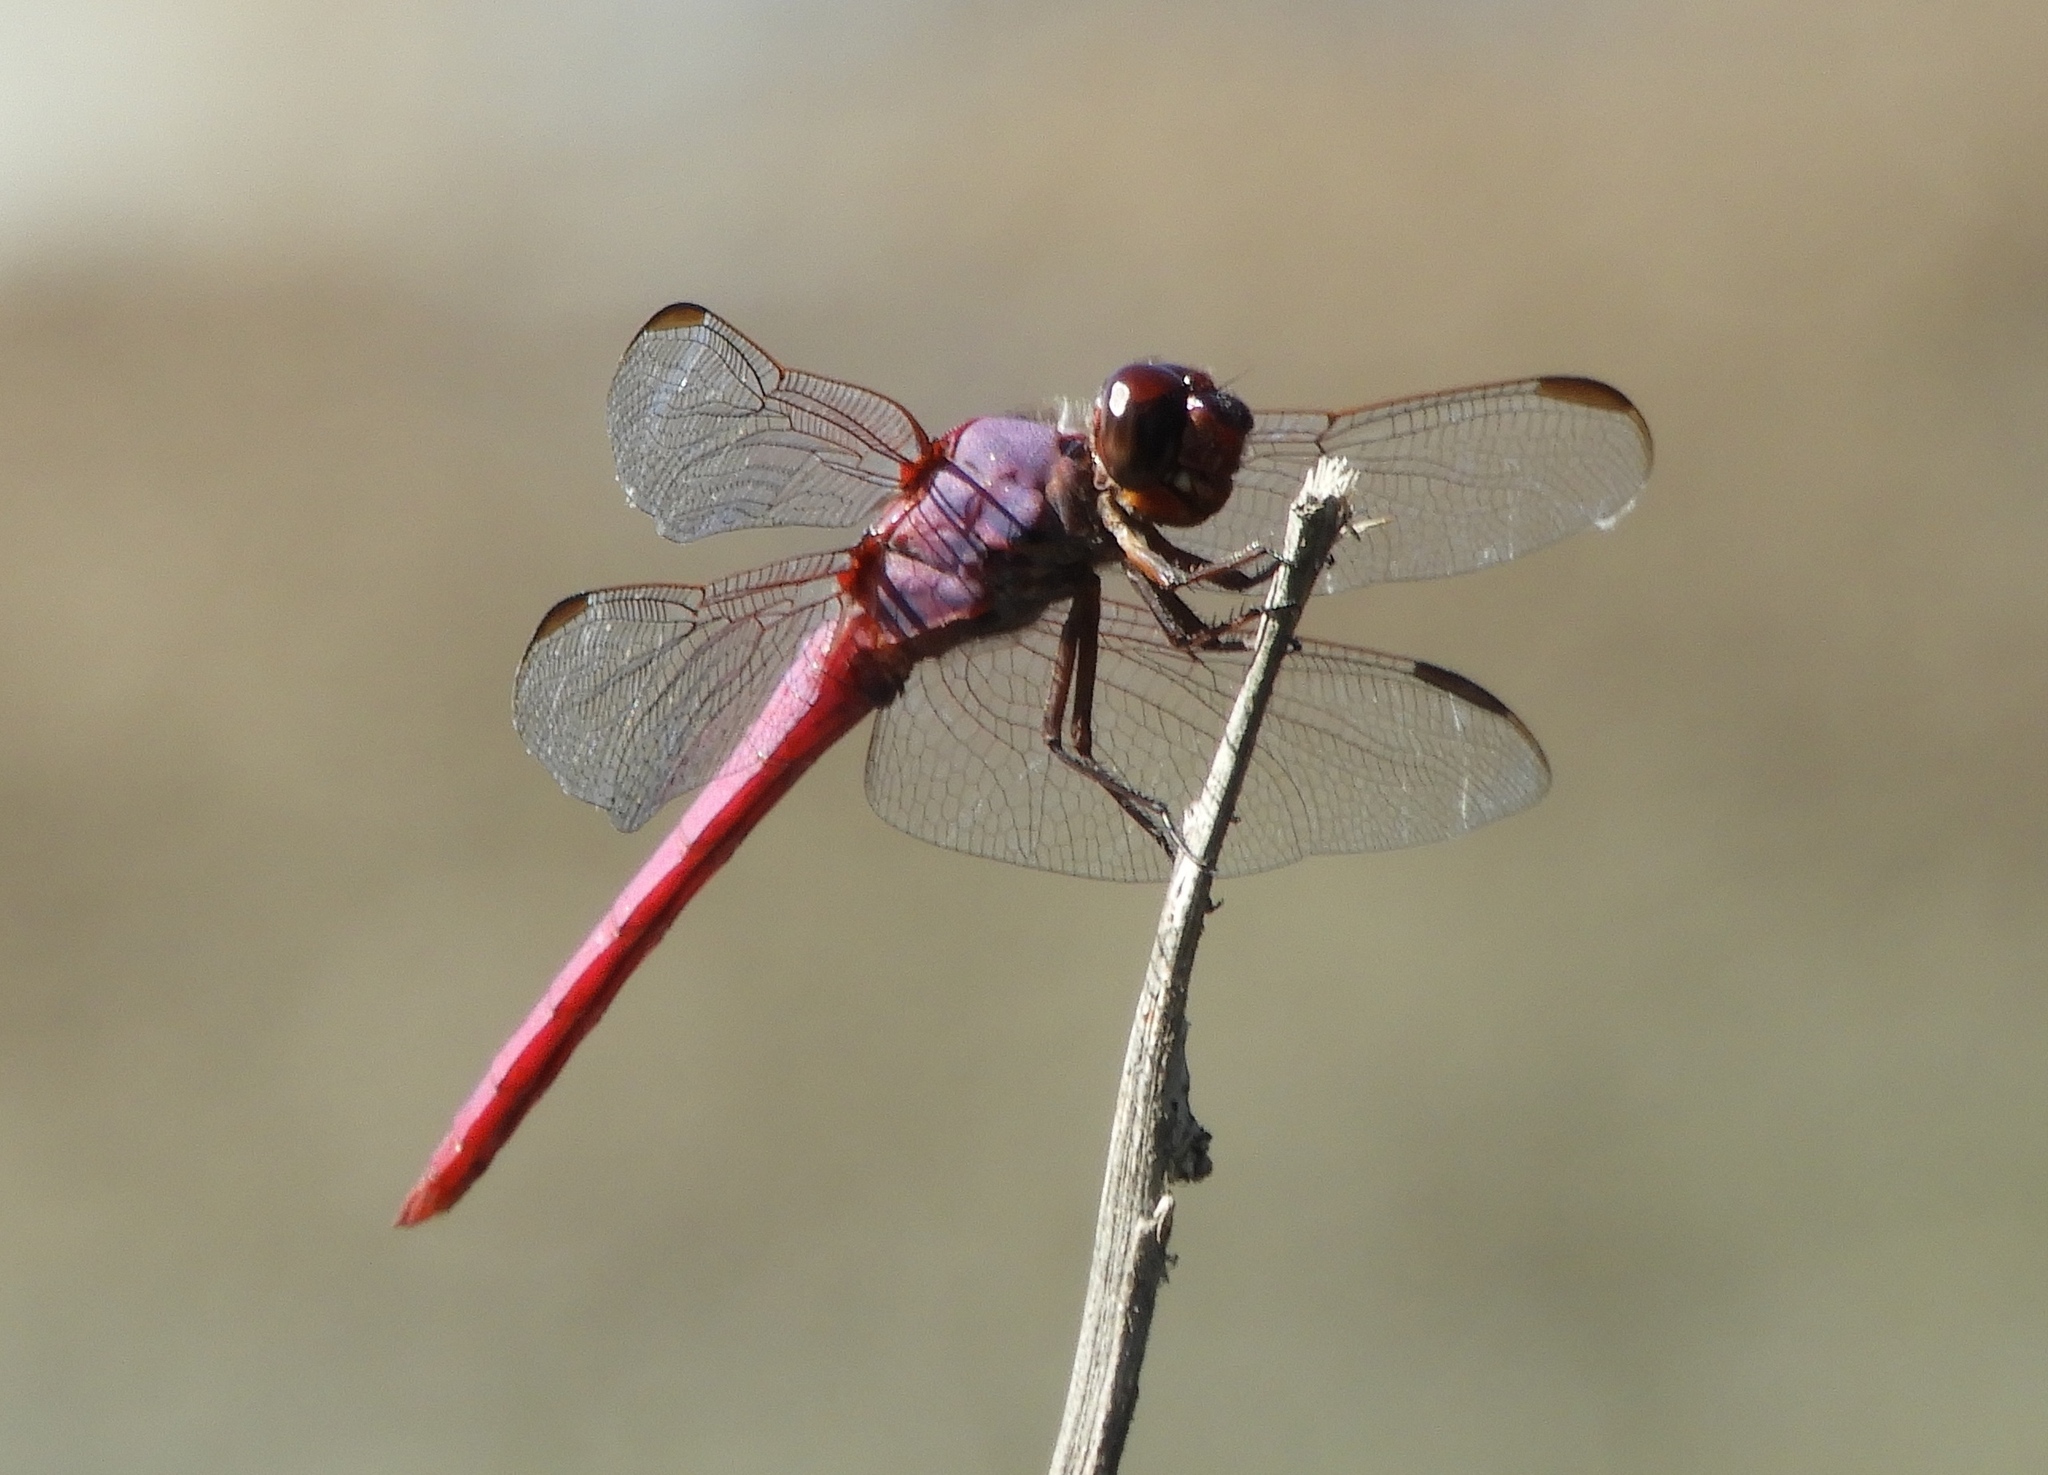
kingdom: Animalia
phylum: Arthropoda
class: Insecta
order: Odonata
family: Libellulidae
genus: Orthemis
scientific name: Orthemis ferruginea
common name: Roseate skimmer
